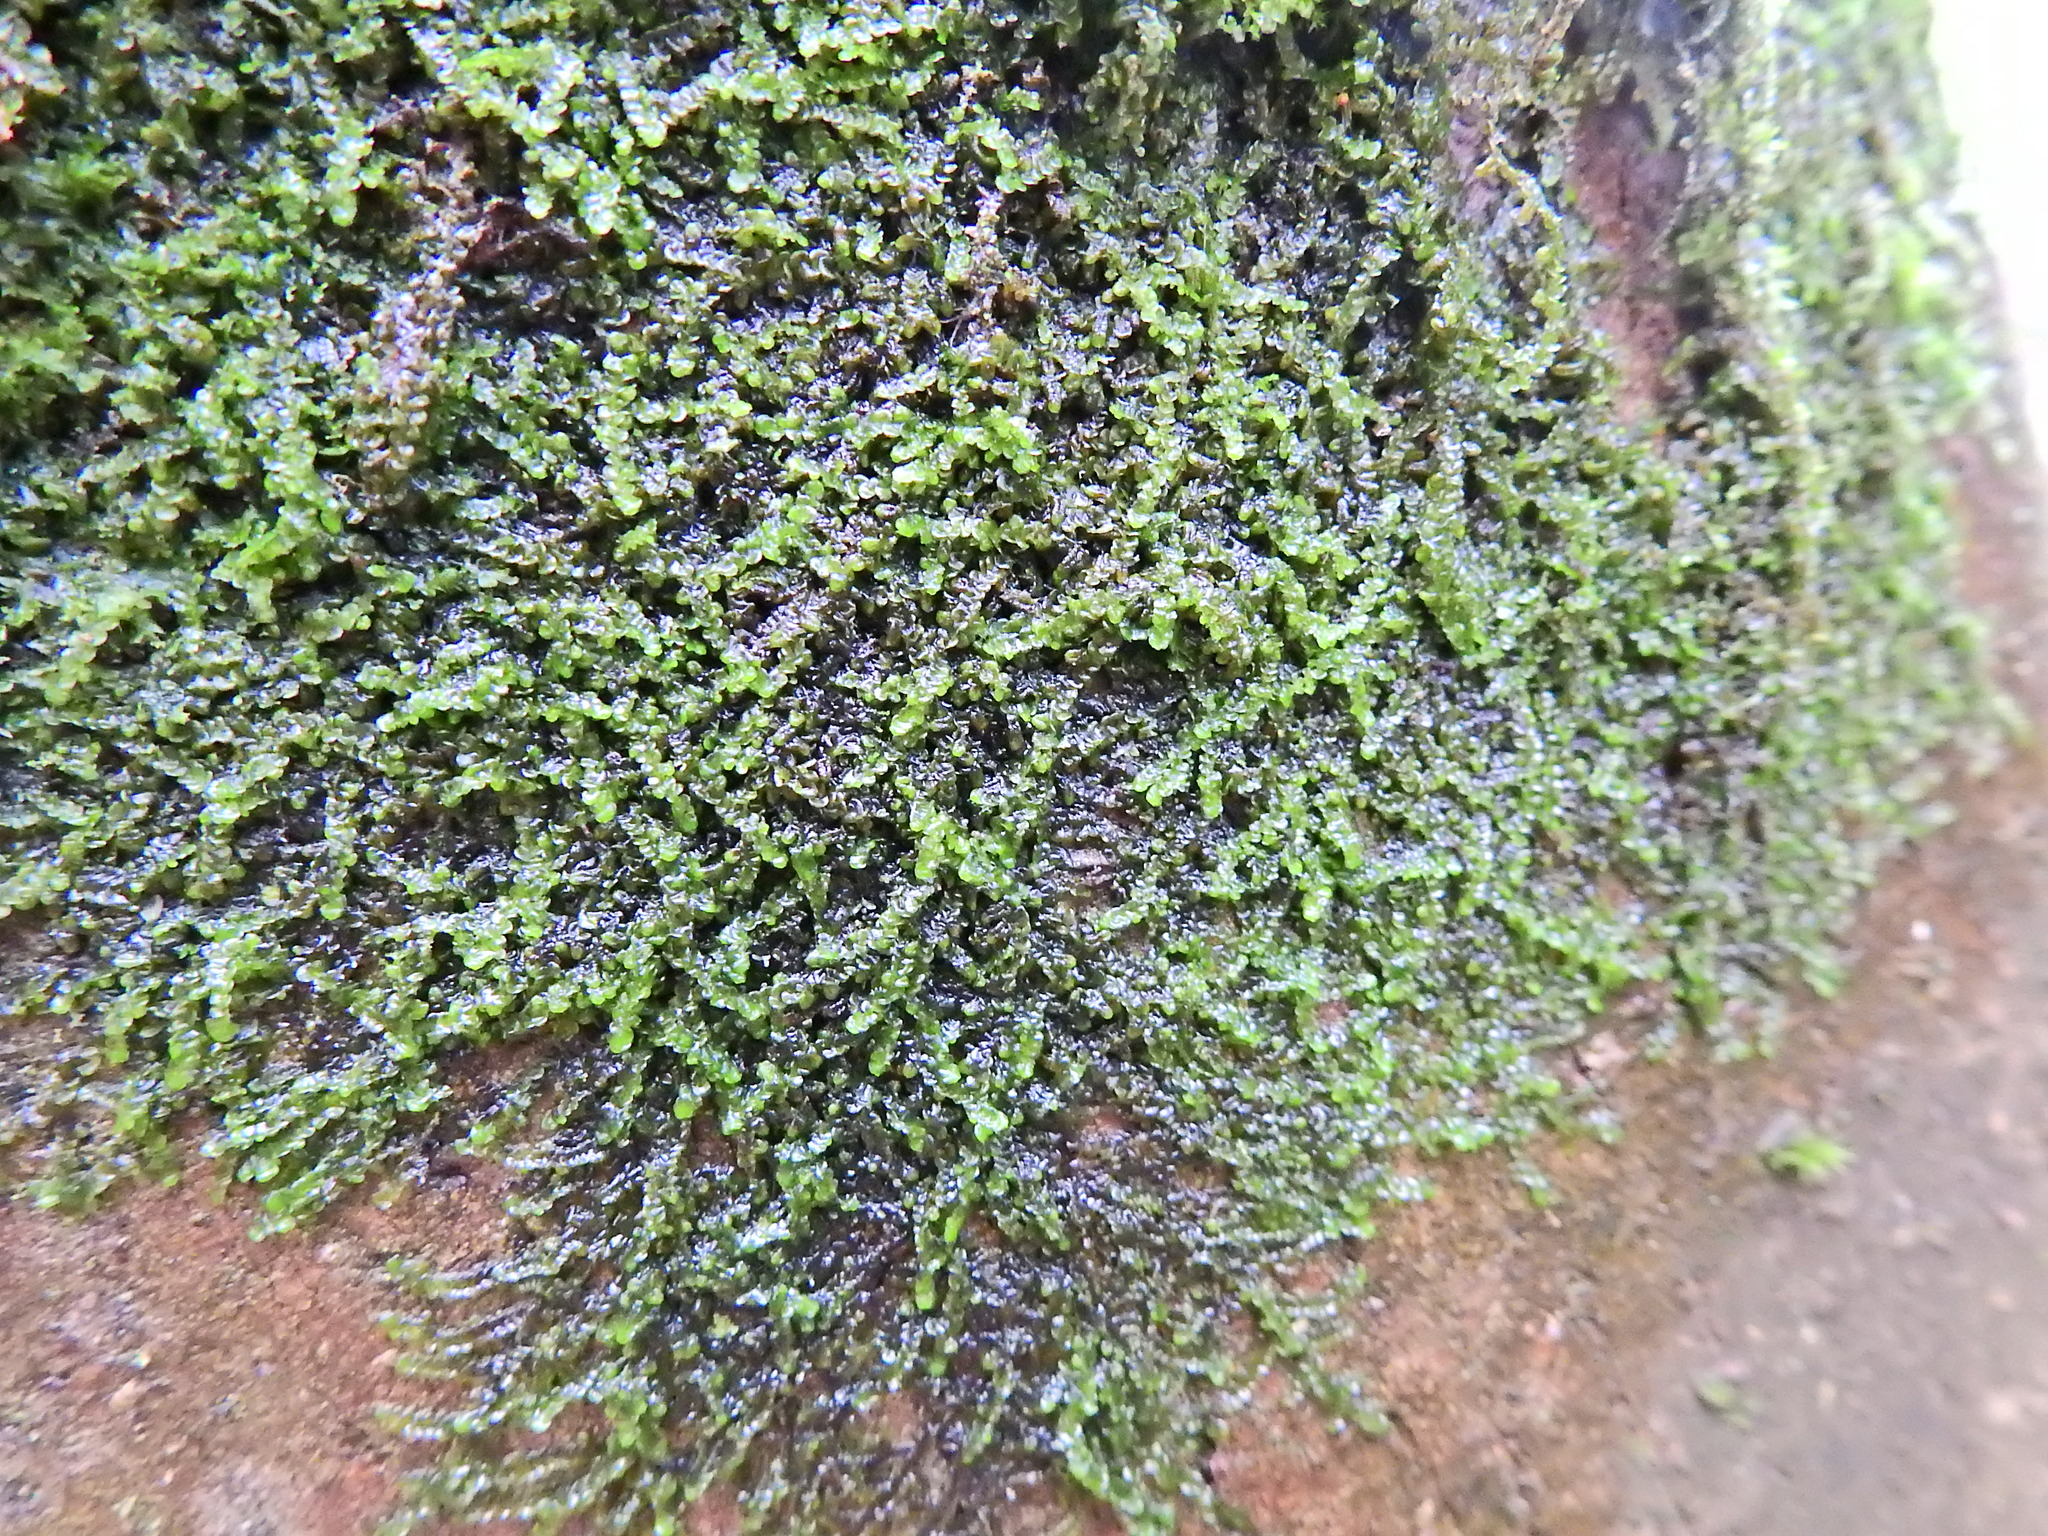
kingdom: Plantae
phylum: Marchantiophyta
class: Jungermanniopsida
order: Porellales
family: Frullaniaceae
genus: Frullania
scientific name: Frullania dilatata
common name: Dilated scalewort
